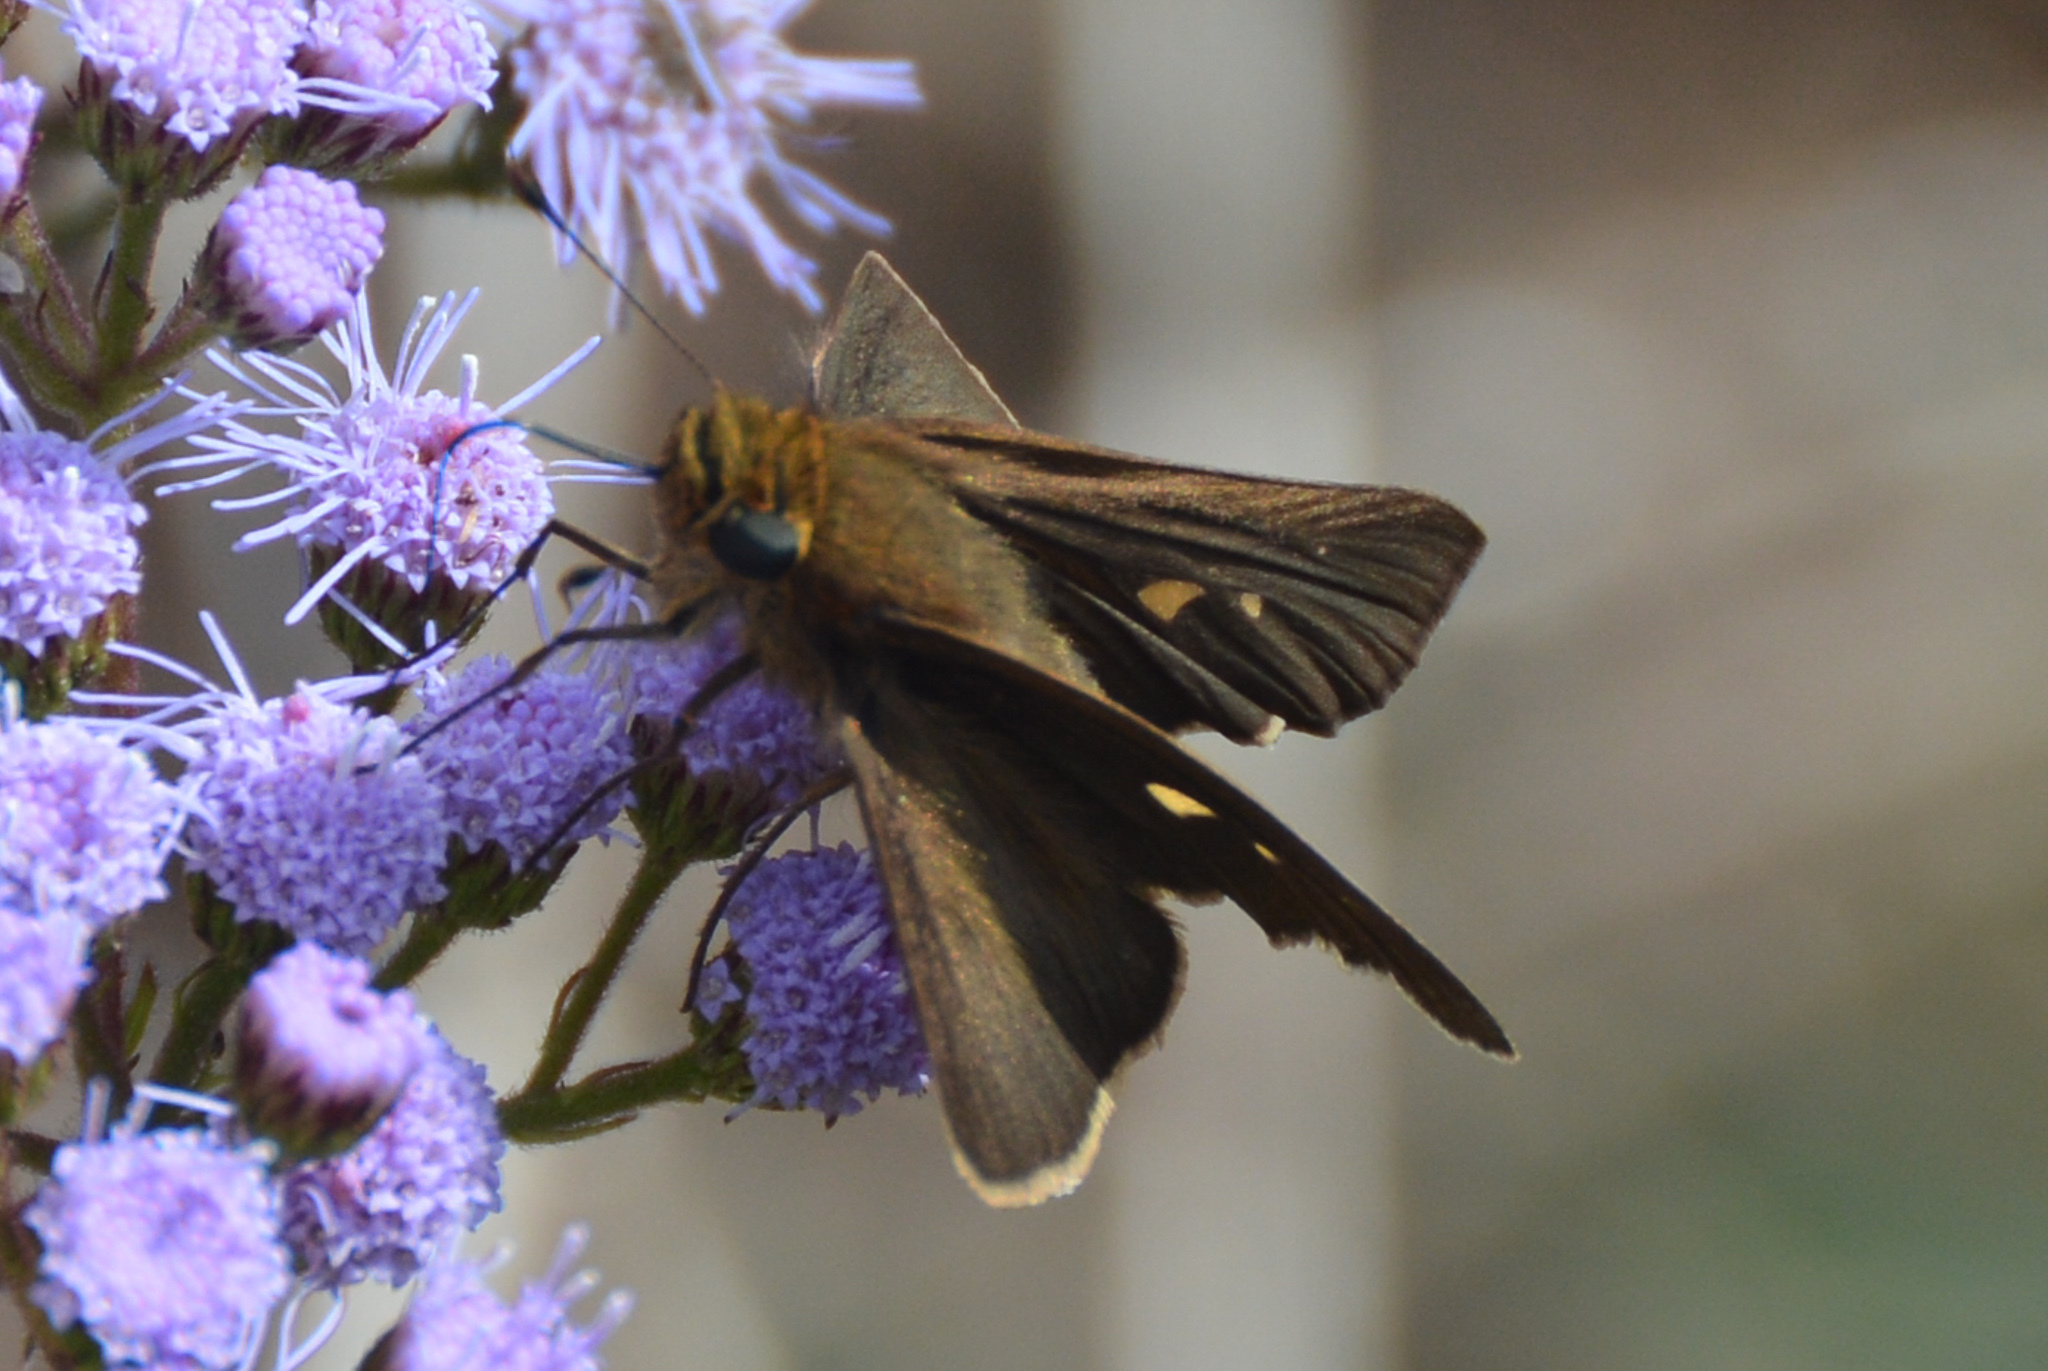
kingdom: Animalia
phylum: Arthropoda
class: Insecta
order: Lepidoptera
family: Hesperiidae
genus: Panoquina
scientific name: Panoquina ocola
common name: Ocola skipper
